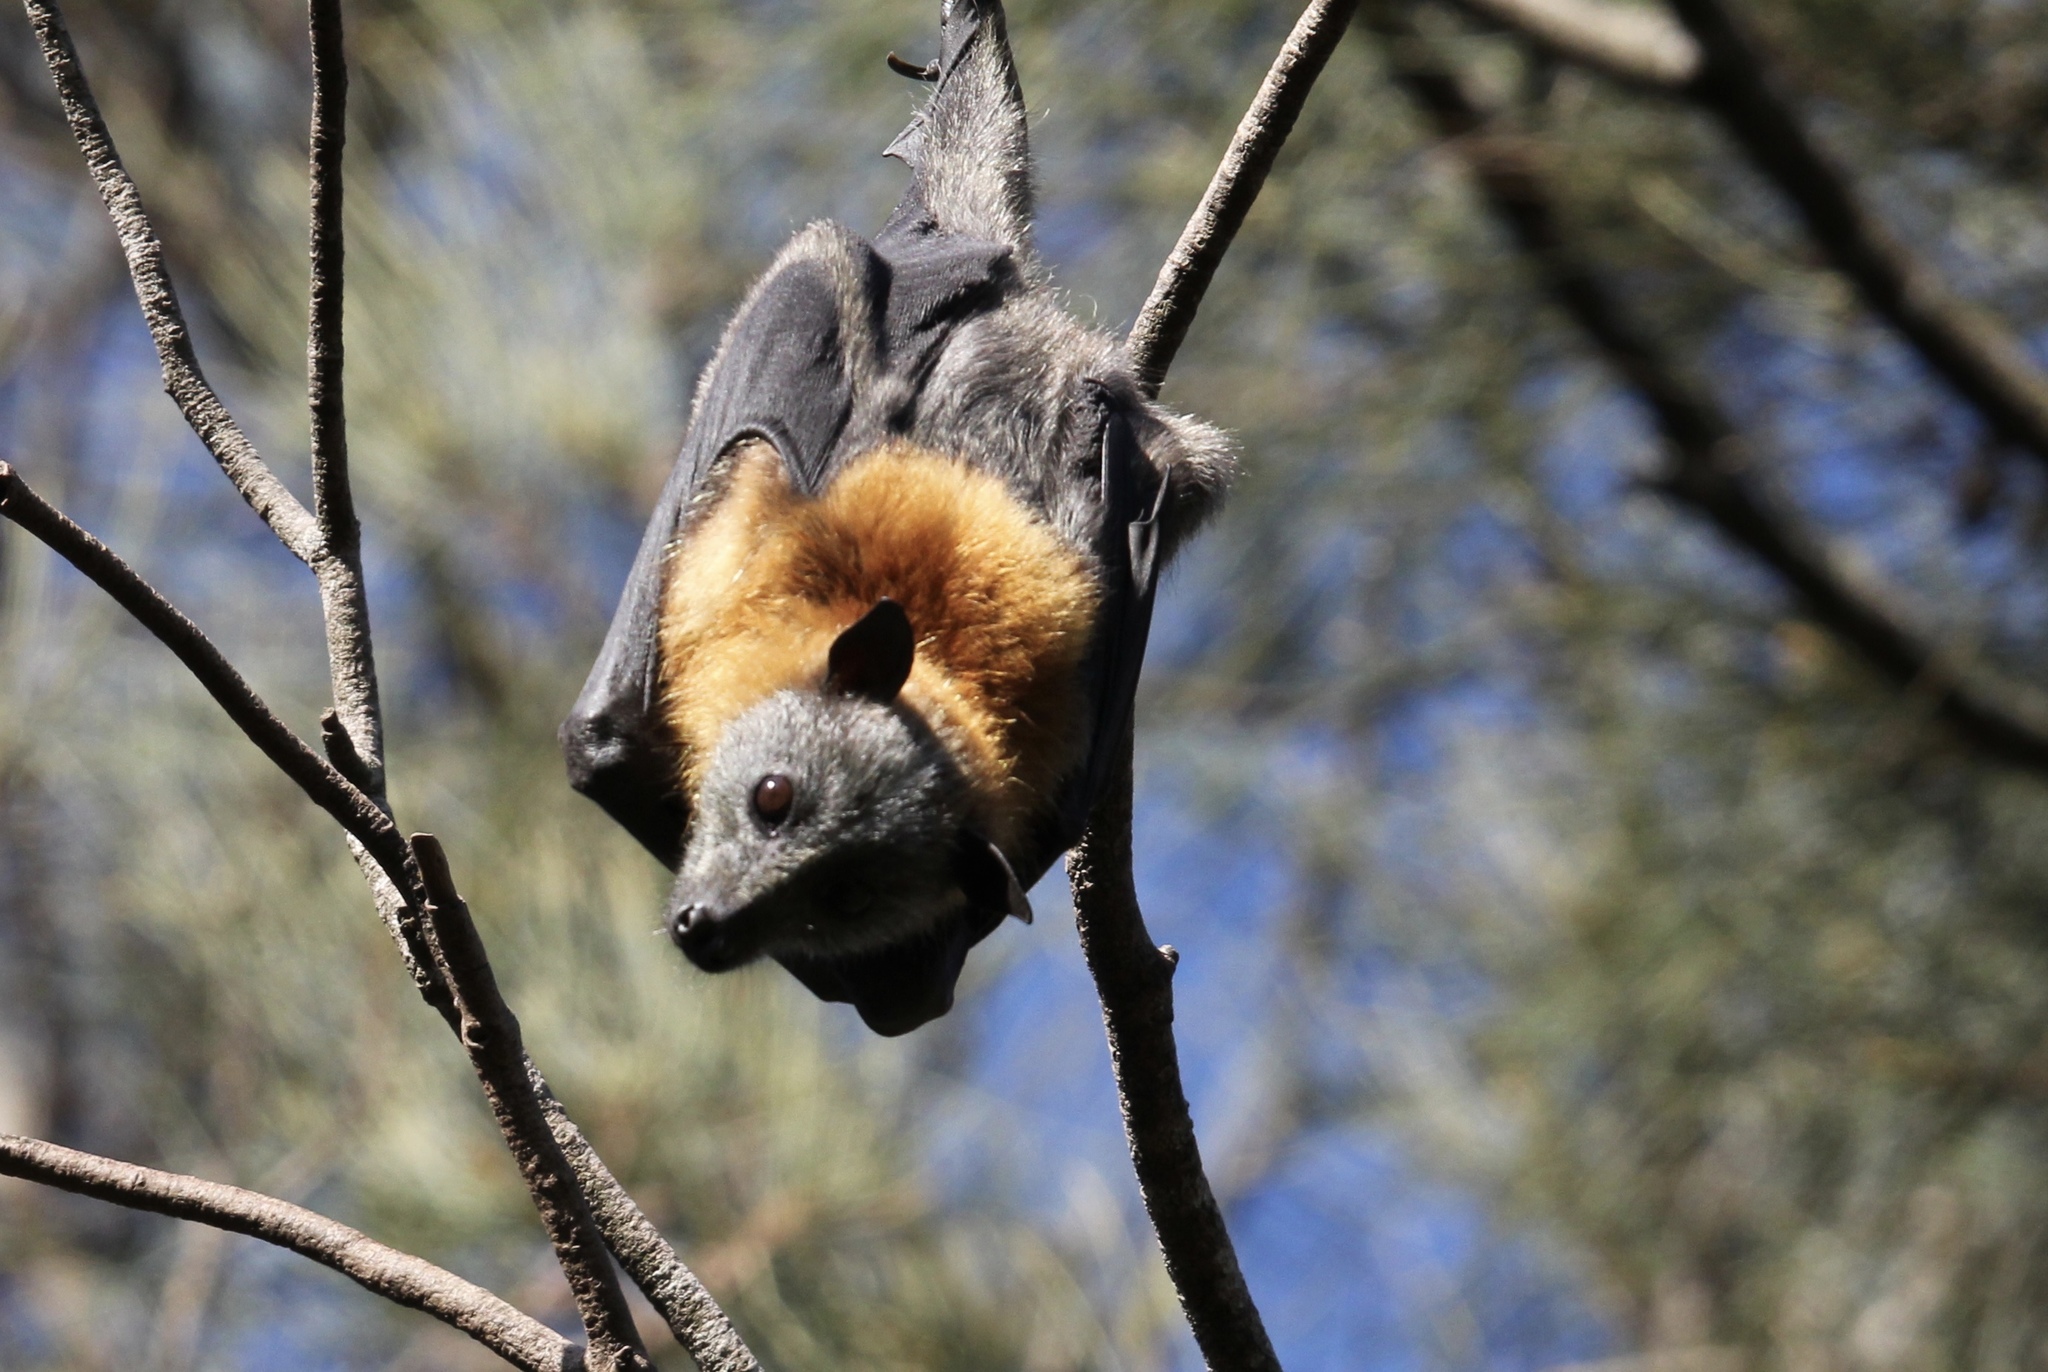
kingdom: Animalia
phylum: Chordata
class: Mammalia
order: Chiroptera
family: Pteropodidae
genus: Pteropus
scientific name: Pteropus poliocephalus
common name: Gray-headed flying fox
